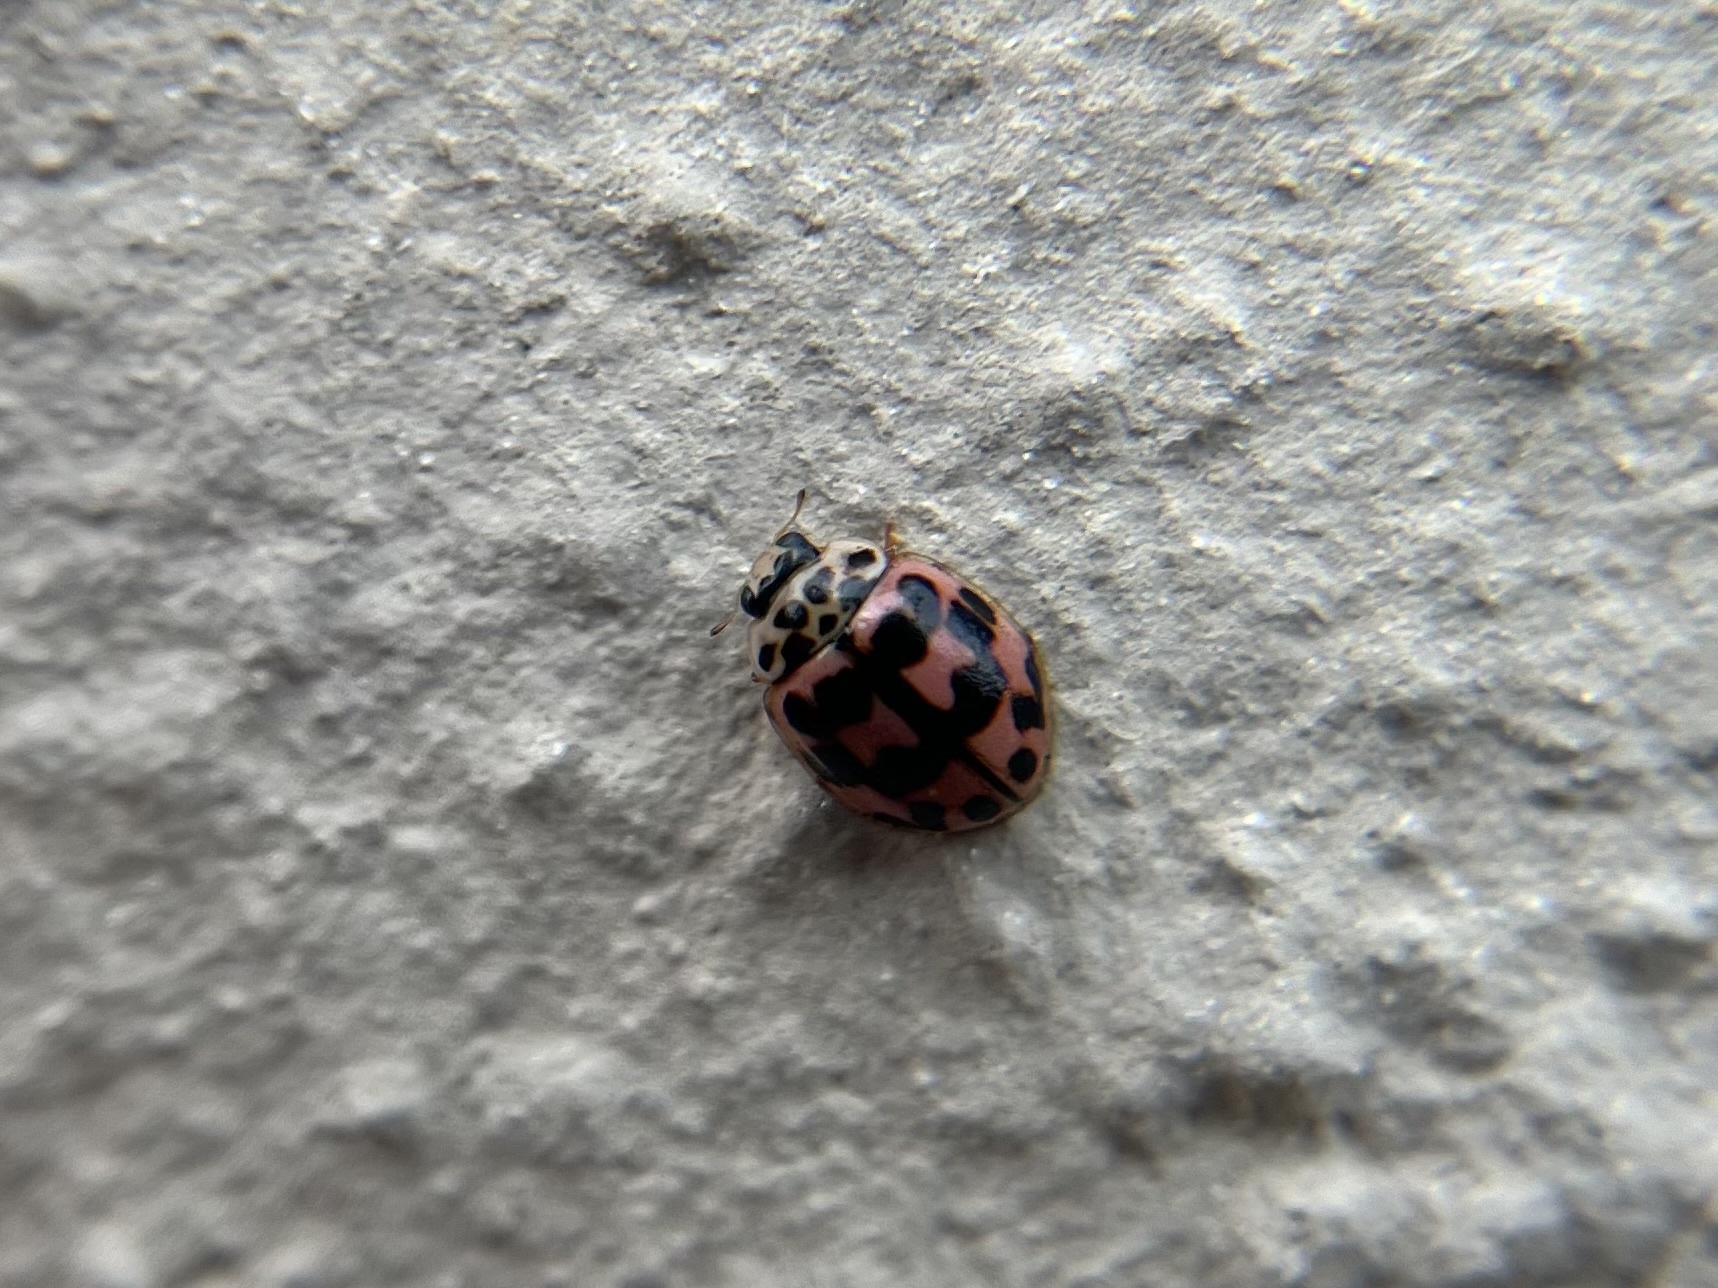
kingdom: Animalia
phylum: Arthropoda
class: Insecta
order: Coleoptera
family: Coccinellidae
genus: Oenopia
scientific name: Oenopia conglobata
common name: Ladybird beetle
